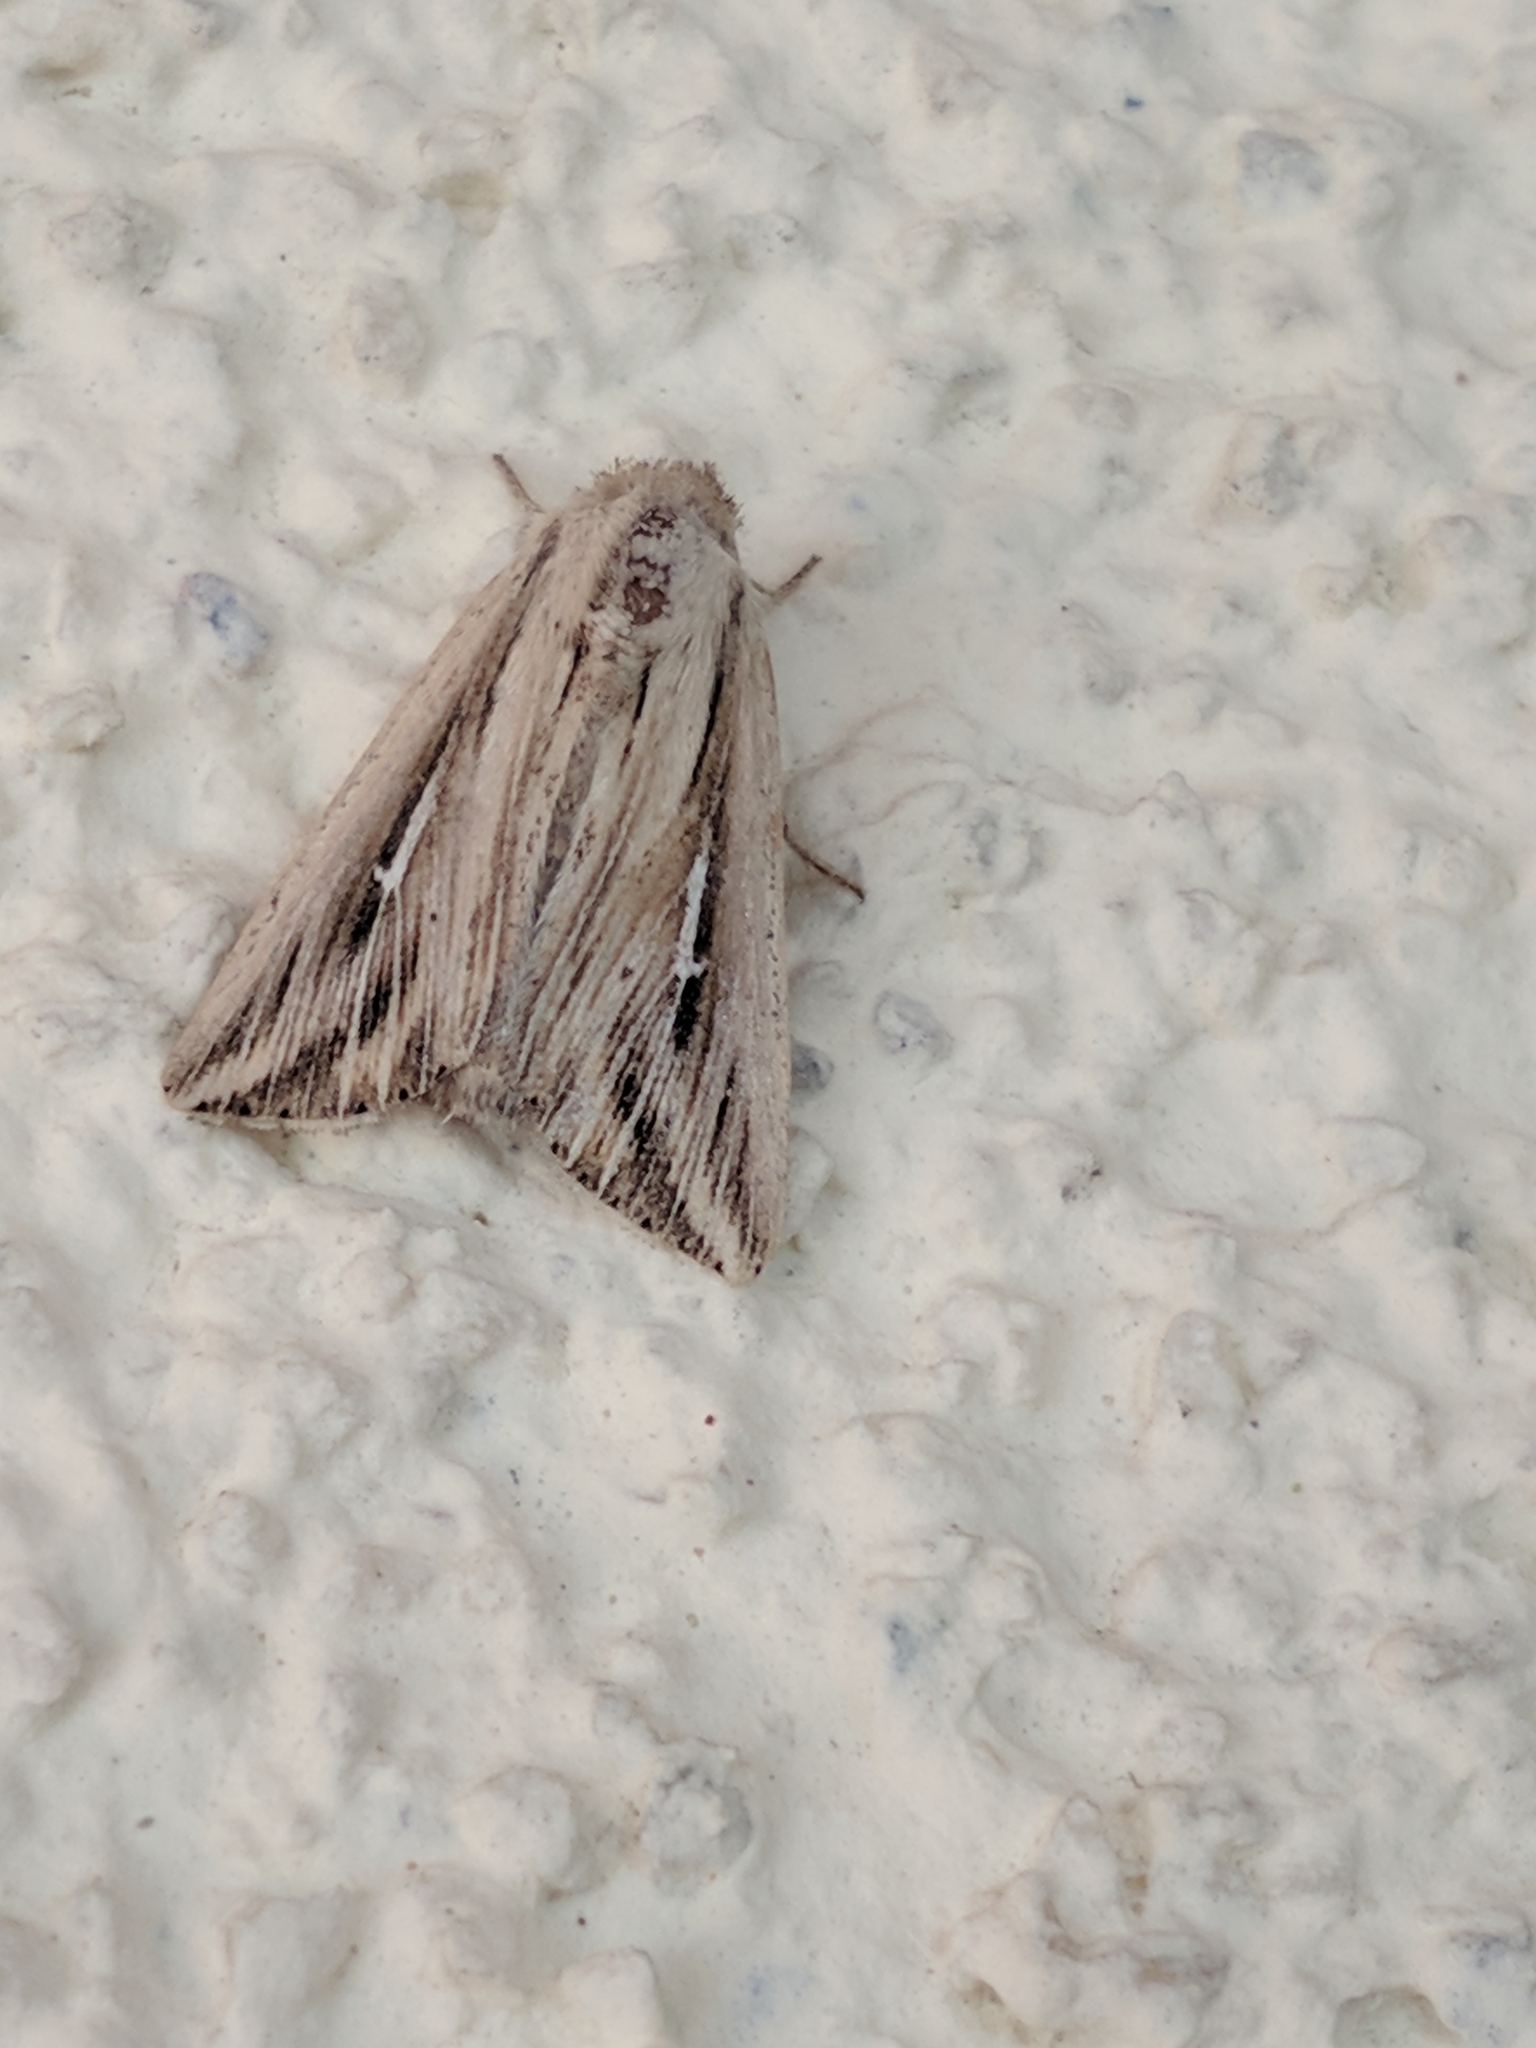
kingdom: Animalia
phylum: Arthropoda
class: Insecta
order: Lepidoptera
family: Noctuidae
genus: Mythimna
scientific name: Mythimna l-album
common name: L-album wainscot
